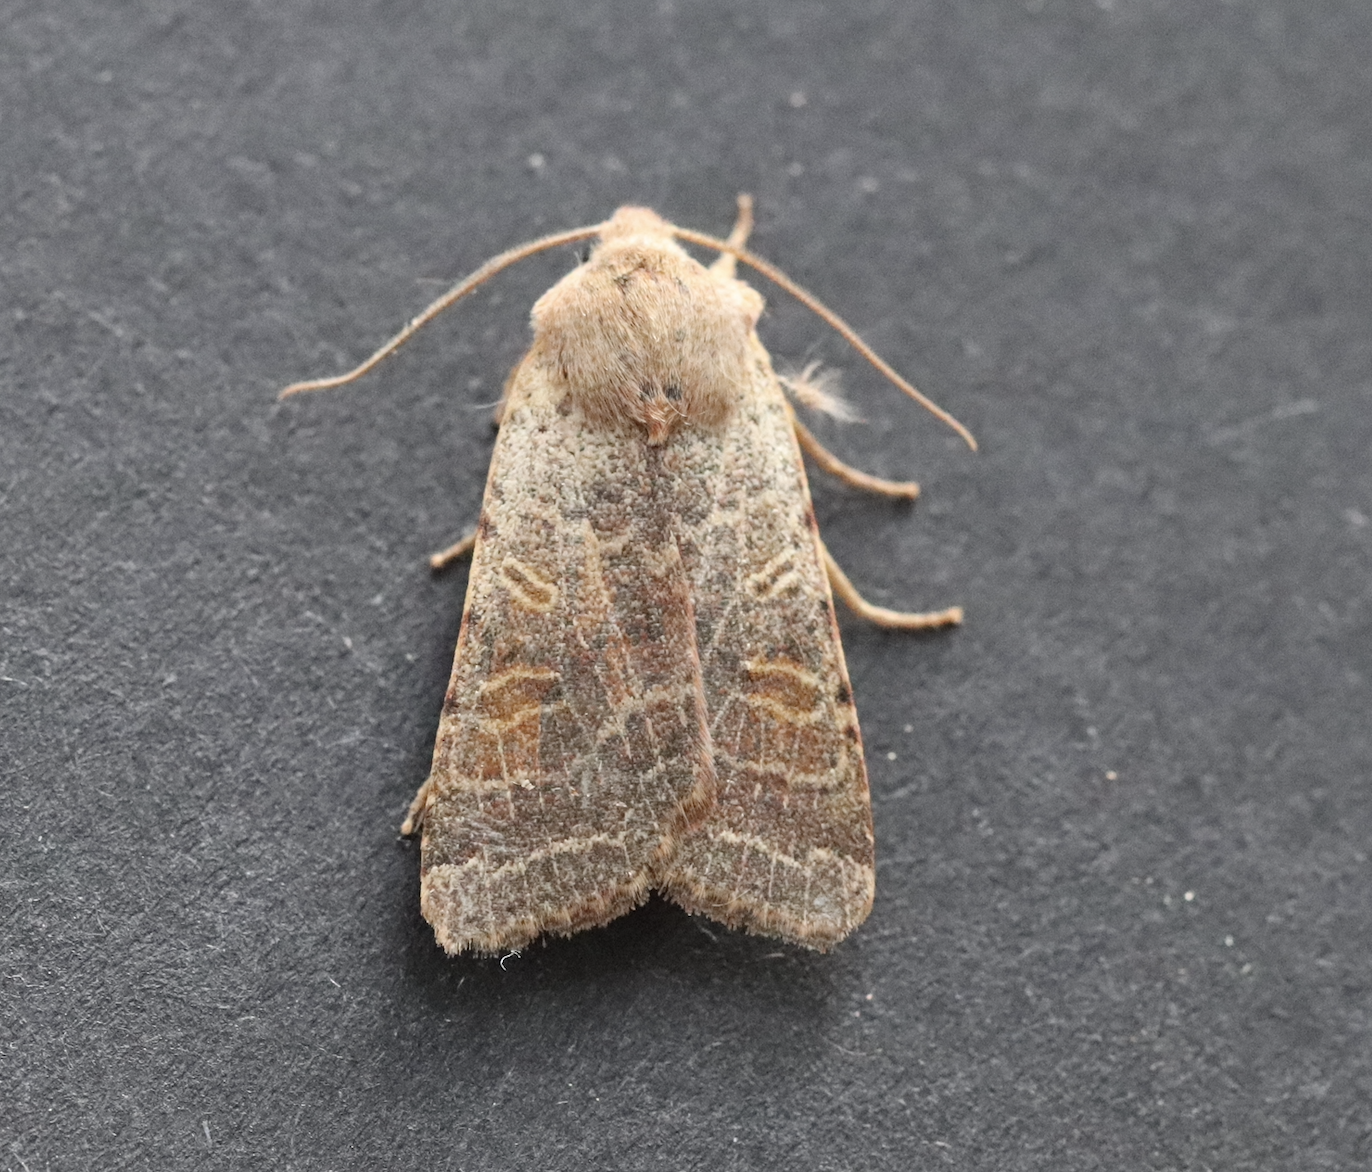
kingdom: Animalia
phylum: Arthropoda
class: Insecta
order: Lepidoptera
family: Noctuidae
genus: Agrochola
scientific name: Agrochola lychnidis
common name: Beaded chestnut
